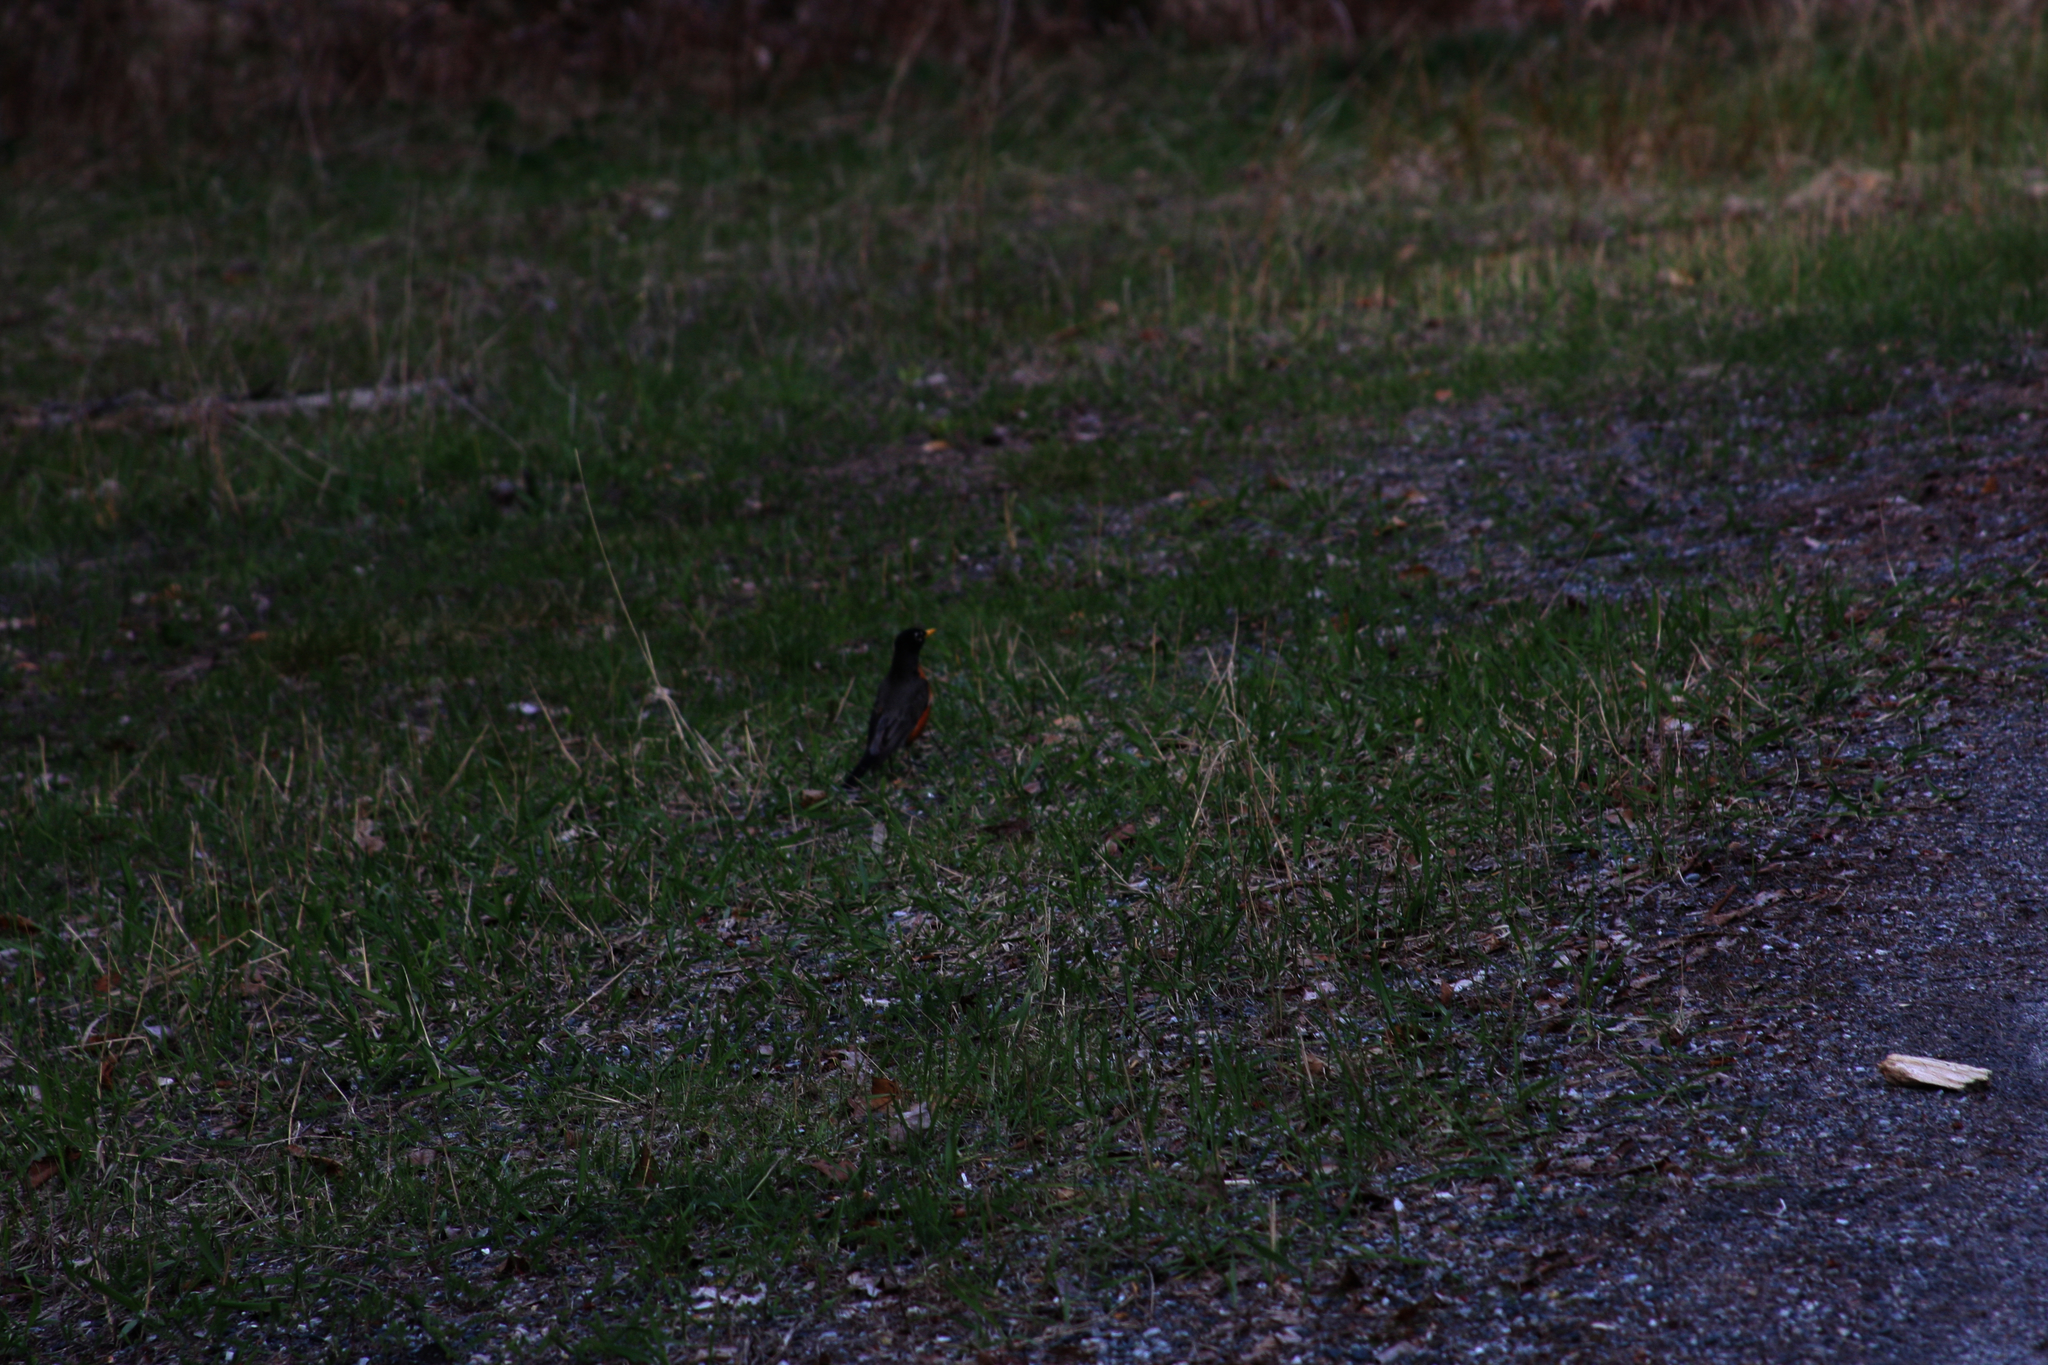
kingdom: Animalia
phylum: Chordata
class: Aves
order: Passeriformes
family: Turdidae
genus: Turdus
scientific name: Turdus migratorius
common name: American robin
